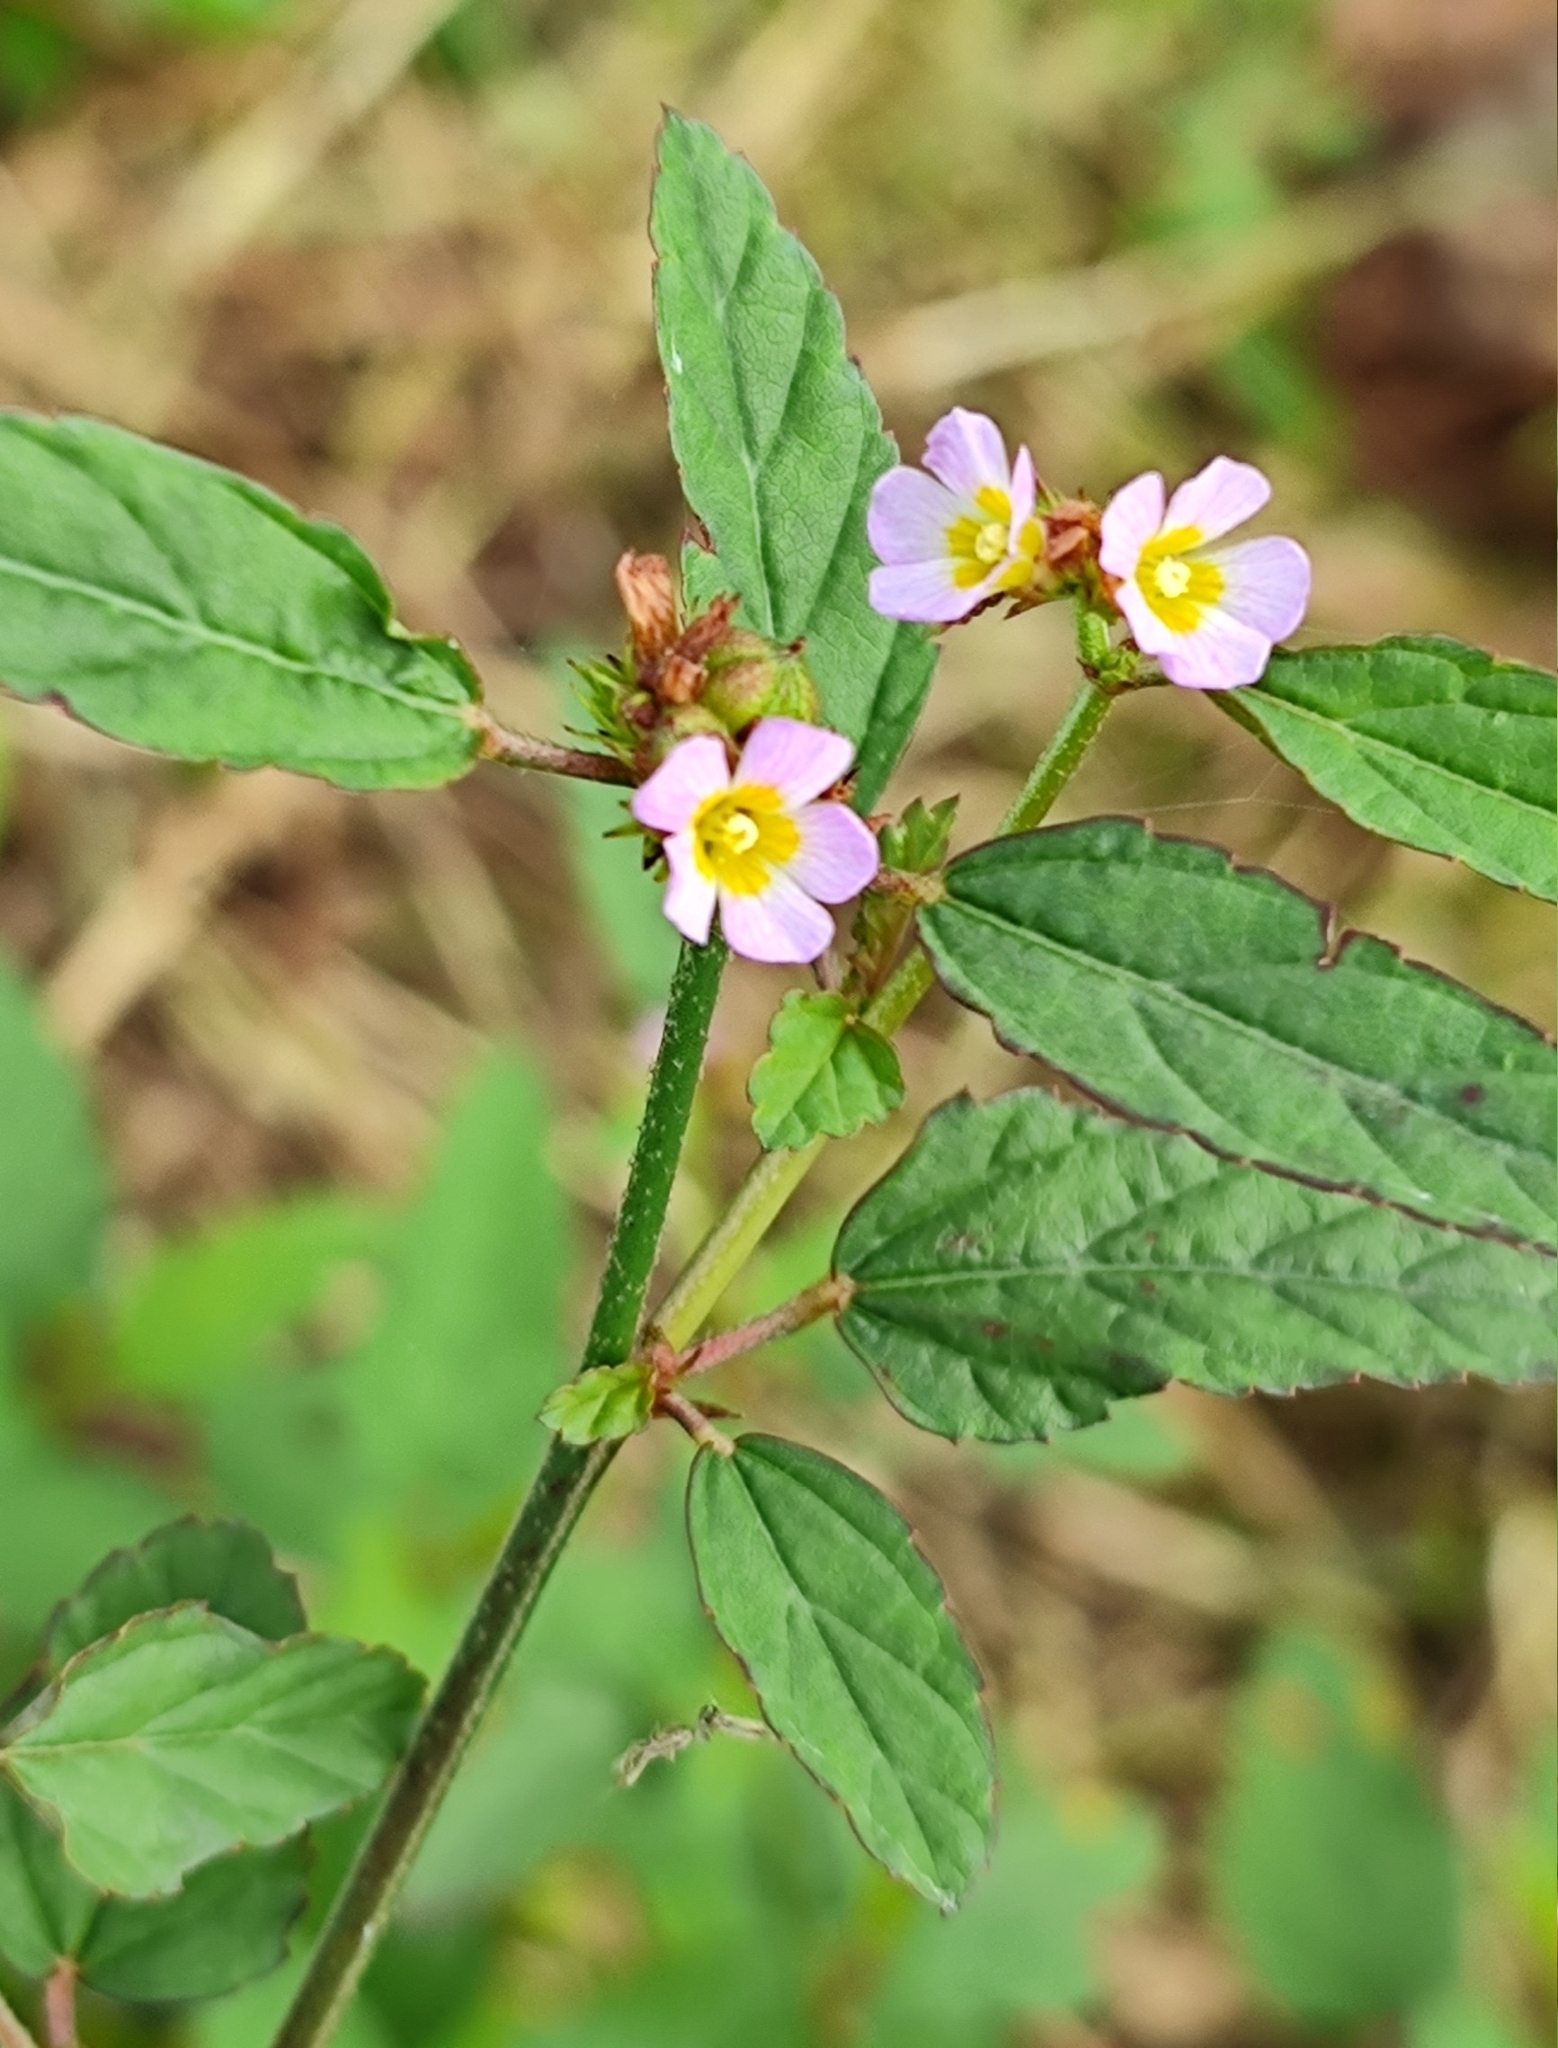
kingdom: Plantae
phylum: Tracheophyta
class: Magnoliopsida
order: Malvales
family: Malvaceae
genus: Melochia
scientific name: Melochia corchorifolia
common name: Chocolateweed
